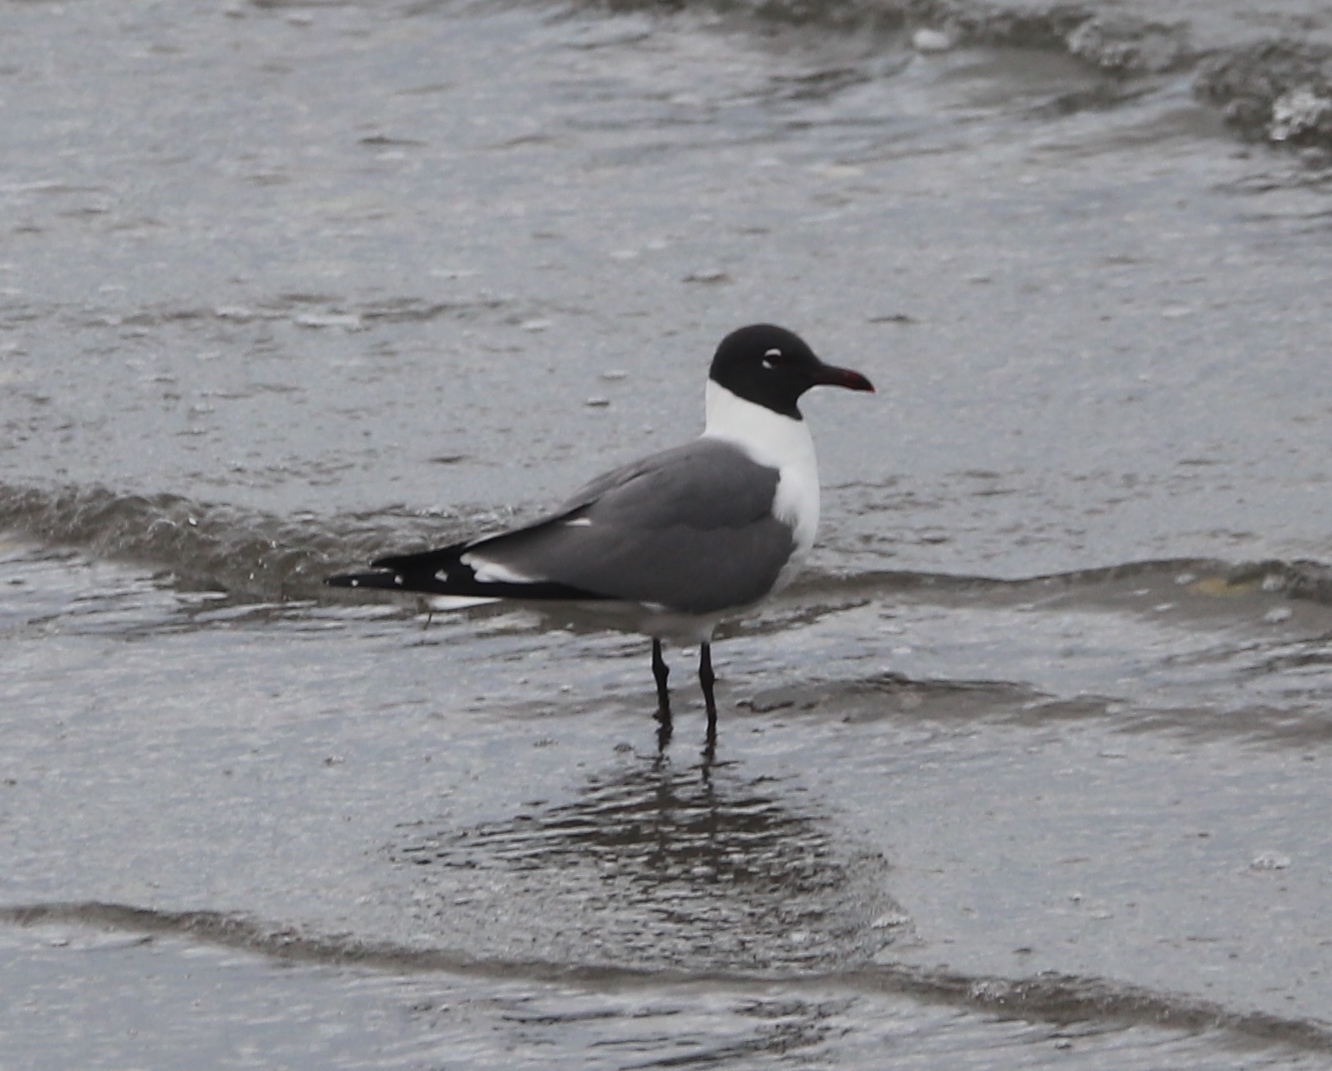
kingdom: Animalia
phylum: Chordata
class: Aves
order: Charadriiformes
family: Laridae
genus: Leucophaeus
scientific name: Leucophaeus atricilla
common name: Laughing gull
